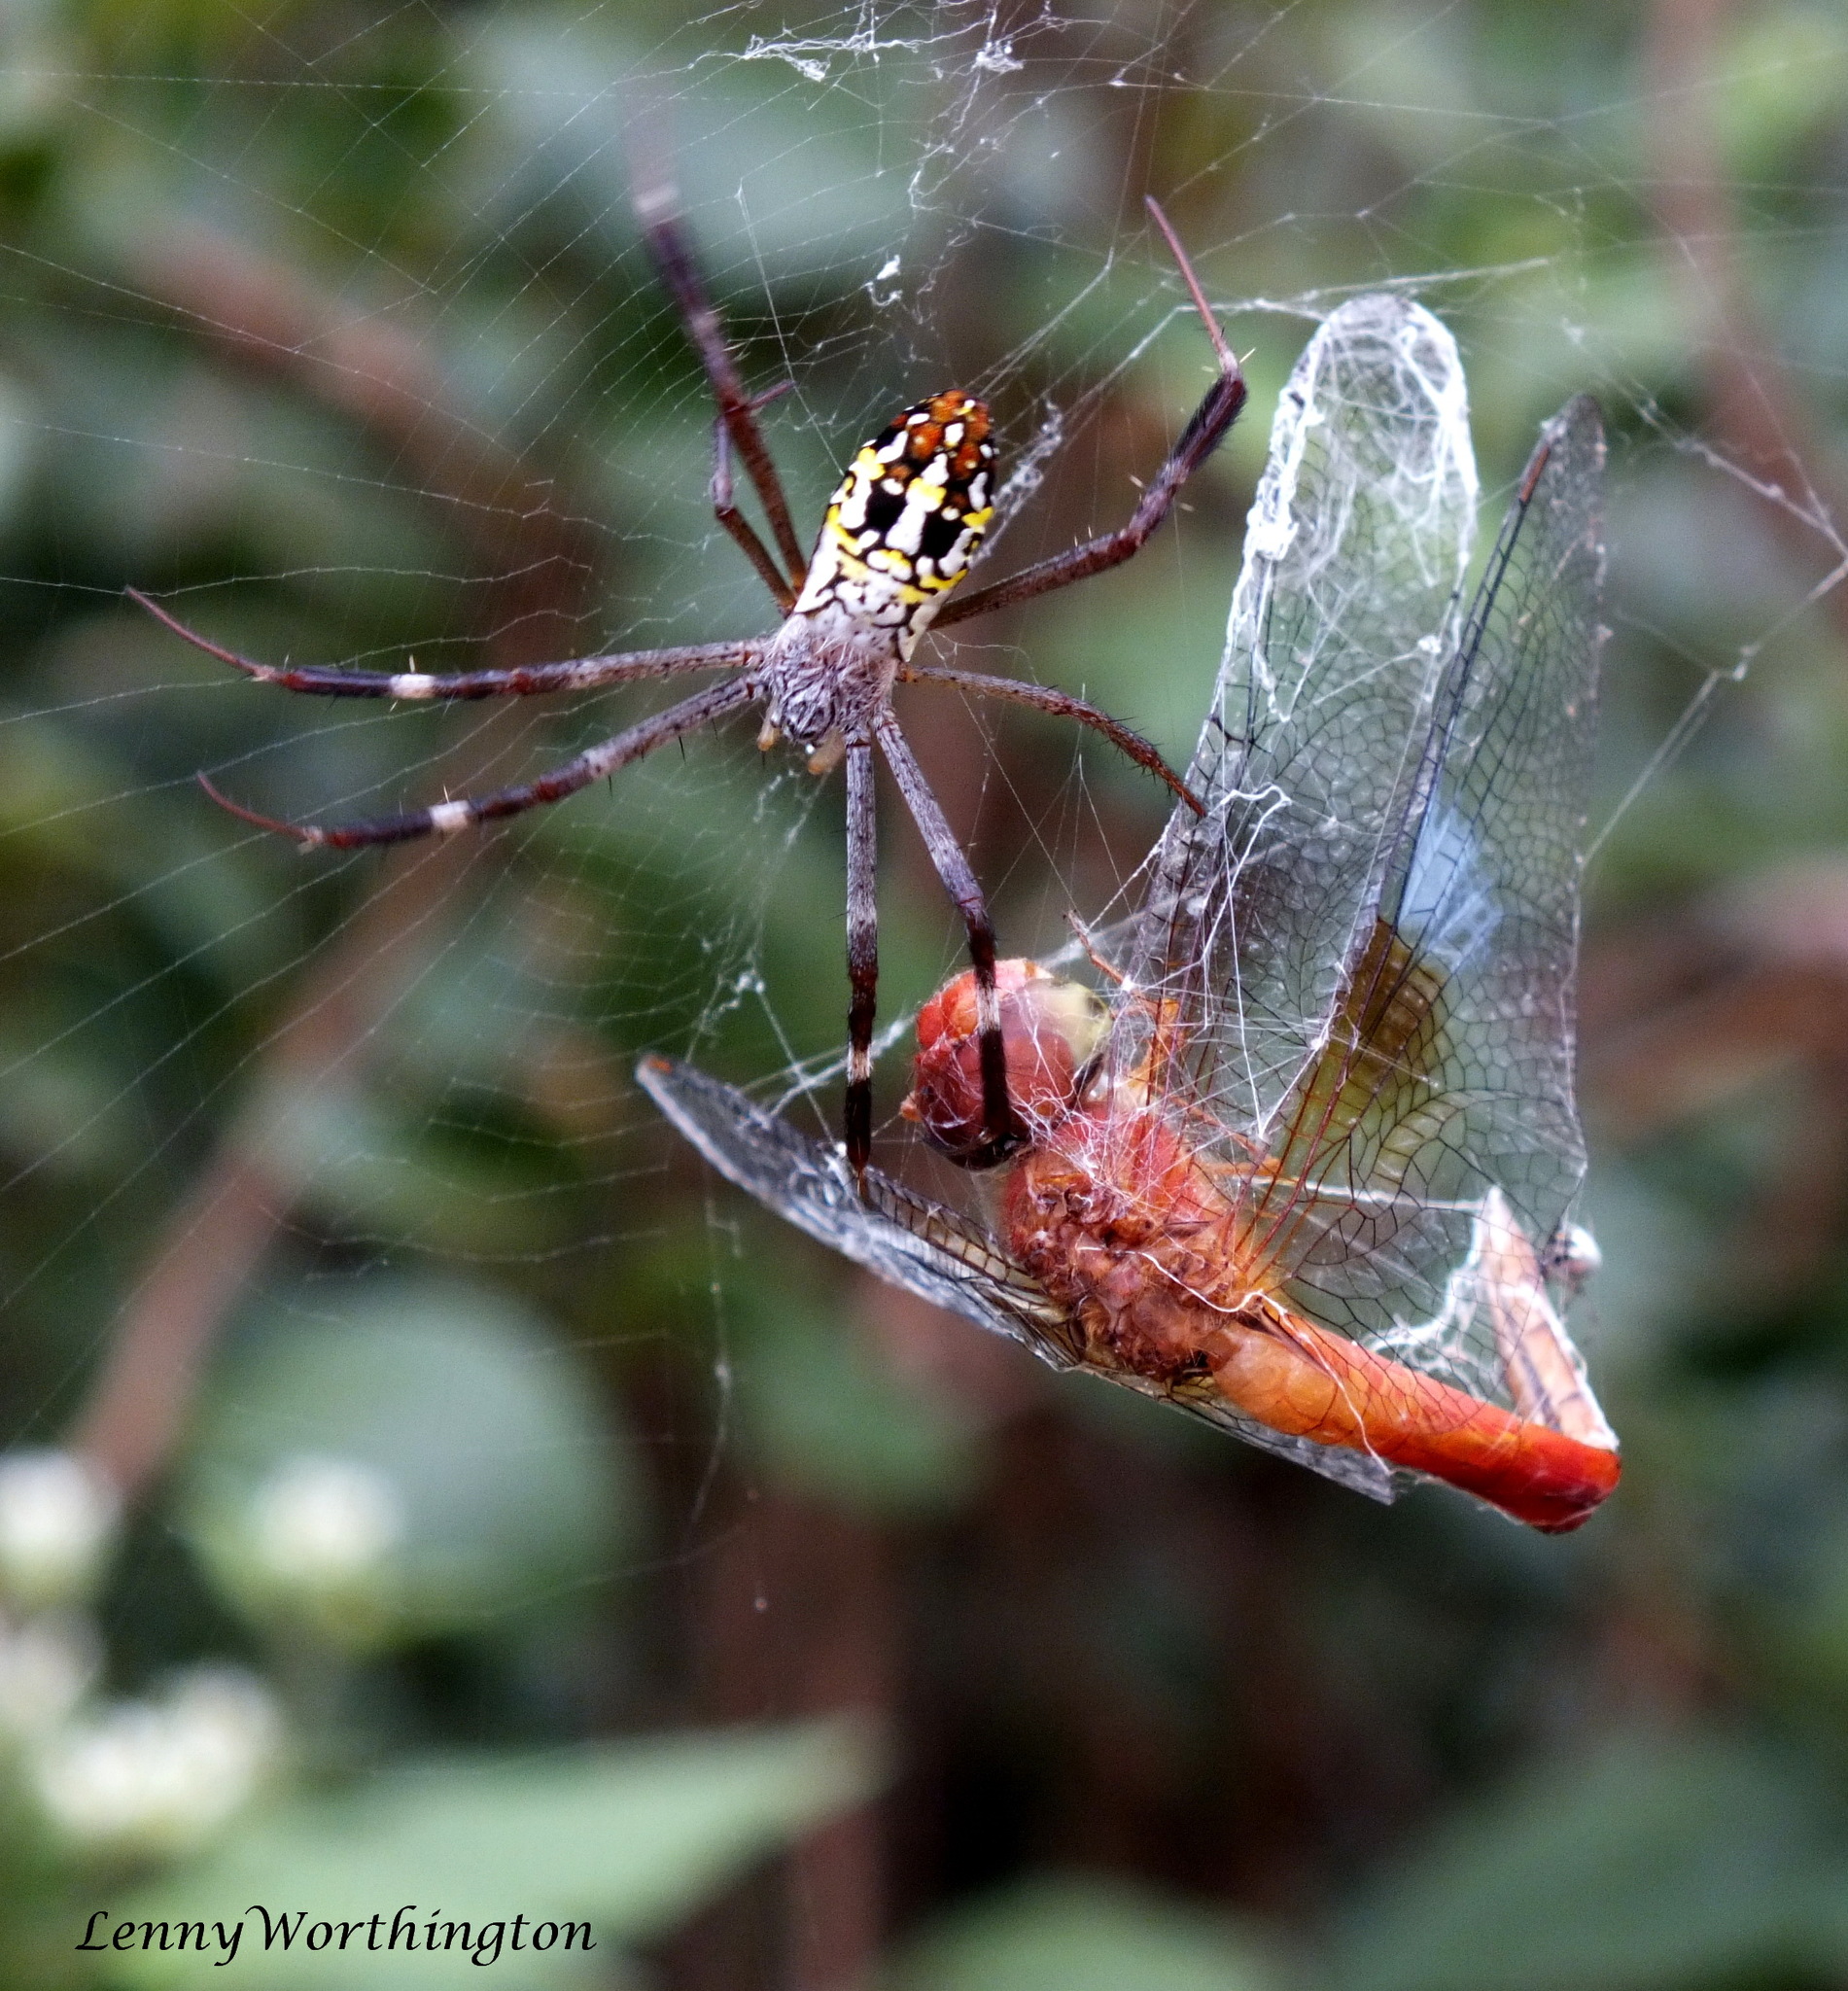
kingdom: Animalia
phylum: Arthropoda
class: Arachnida
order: Araneae
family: Araneidae
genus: Argiope
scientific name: Argiope dang
